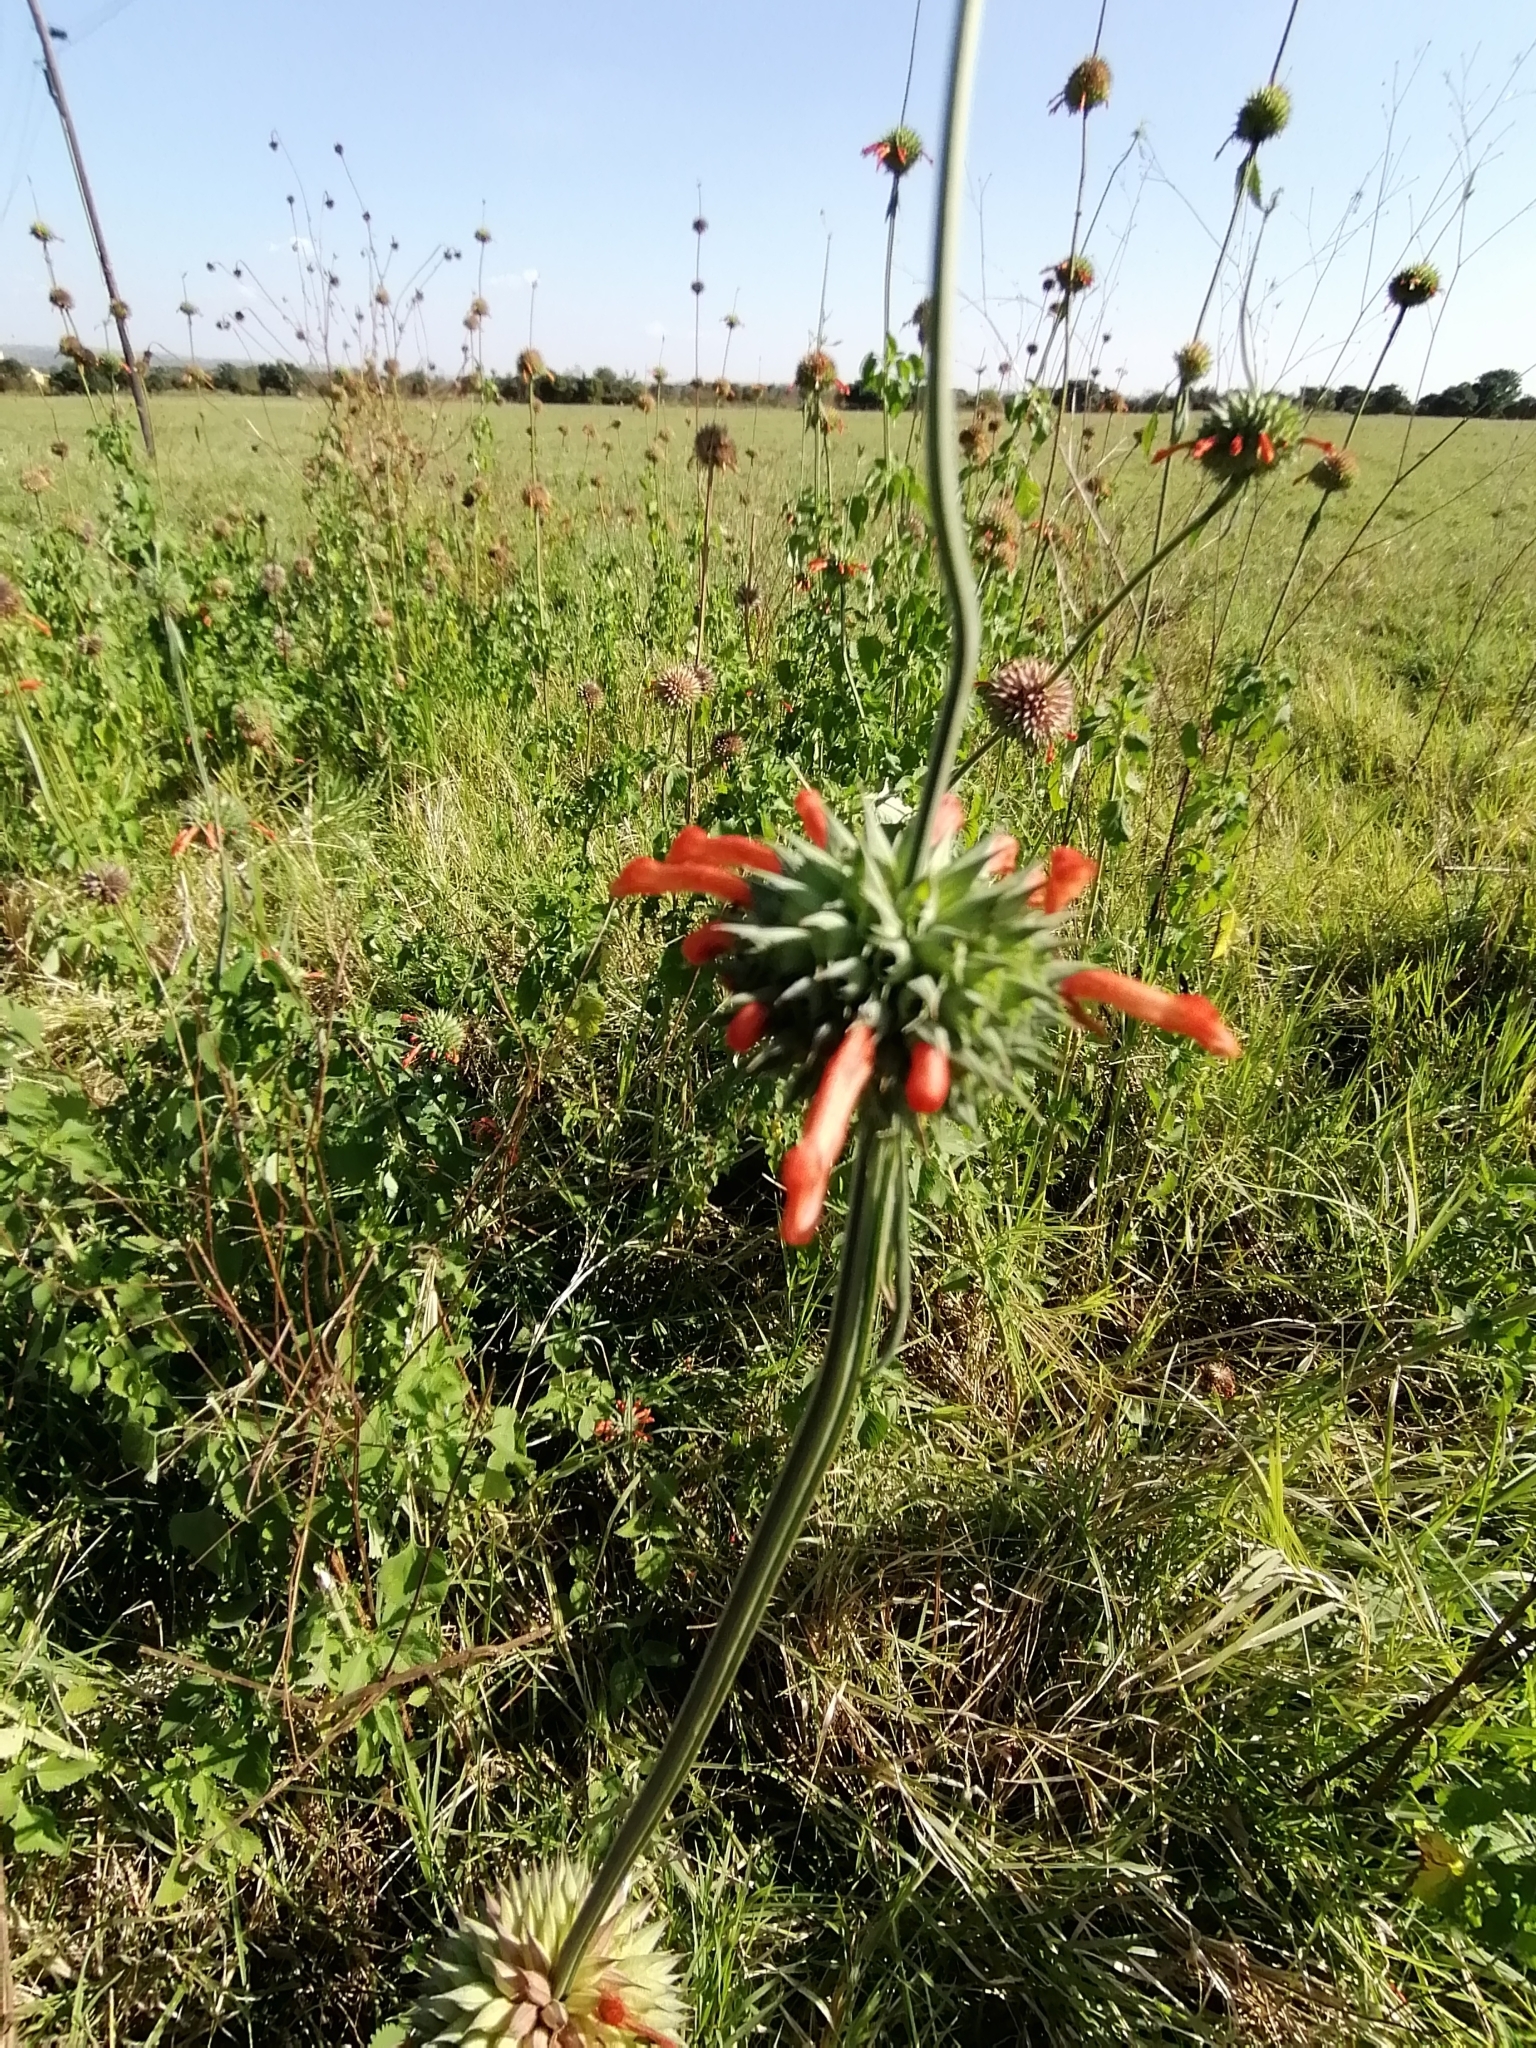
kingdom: Plantae
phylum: Tracheophyta
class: Magnoliopsida
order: Lamiales
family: Lamiaceae
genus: Leonotis
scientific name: Leonotis nepetifolia
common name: Christmas candlestick
